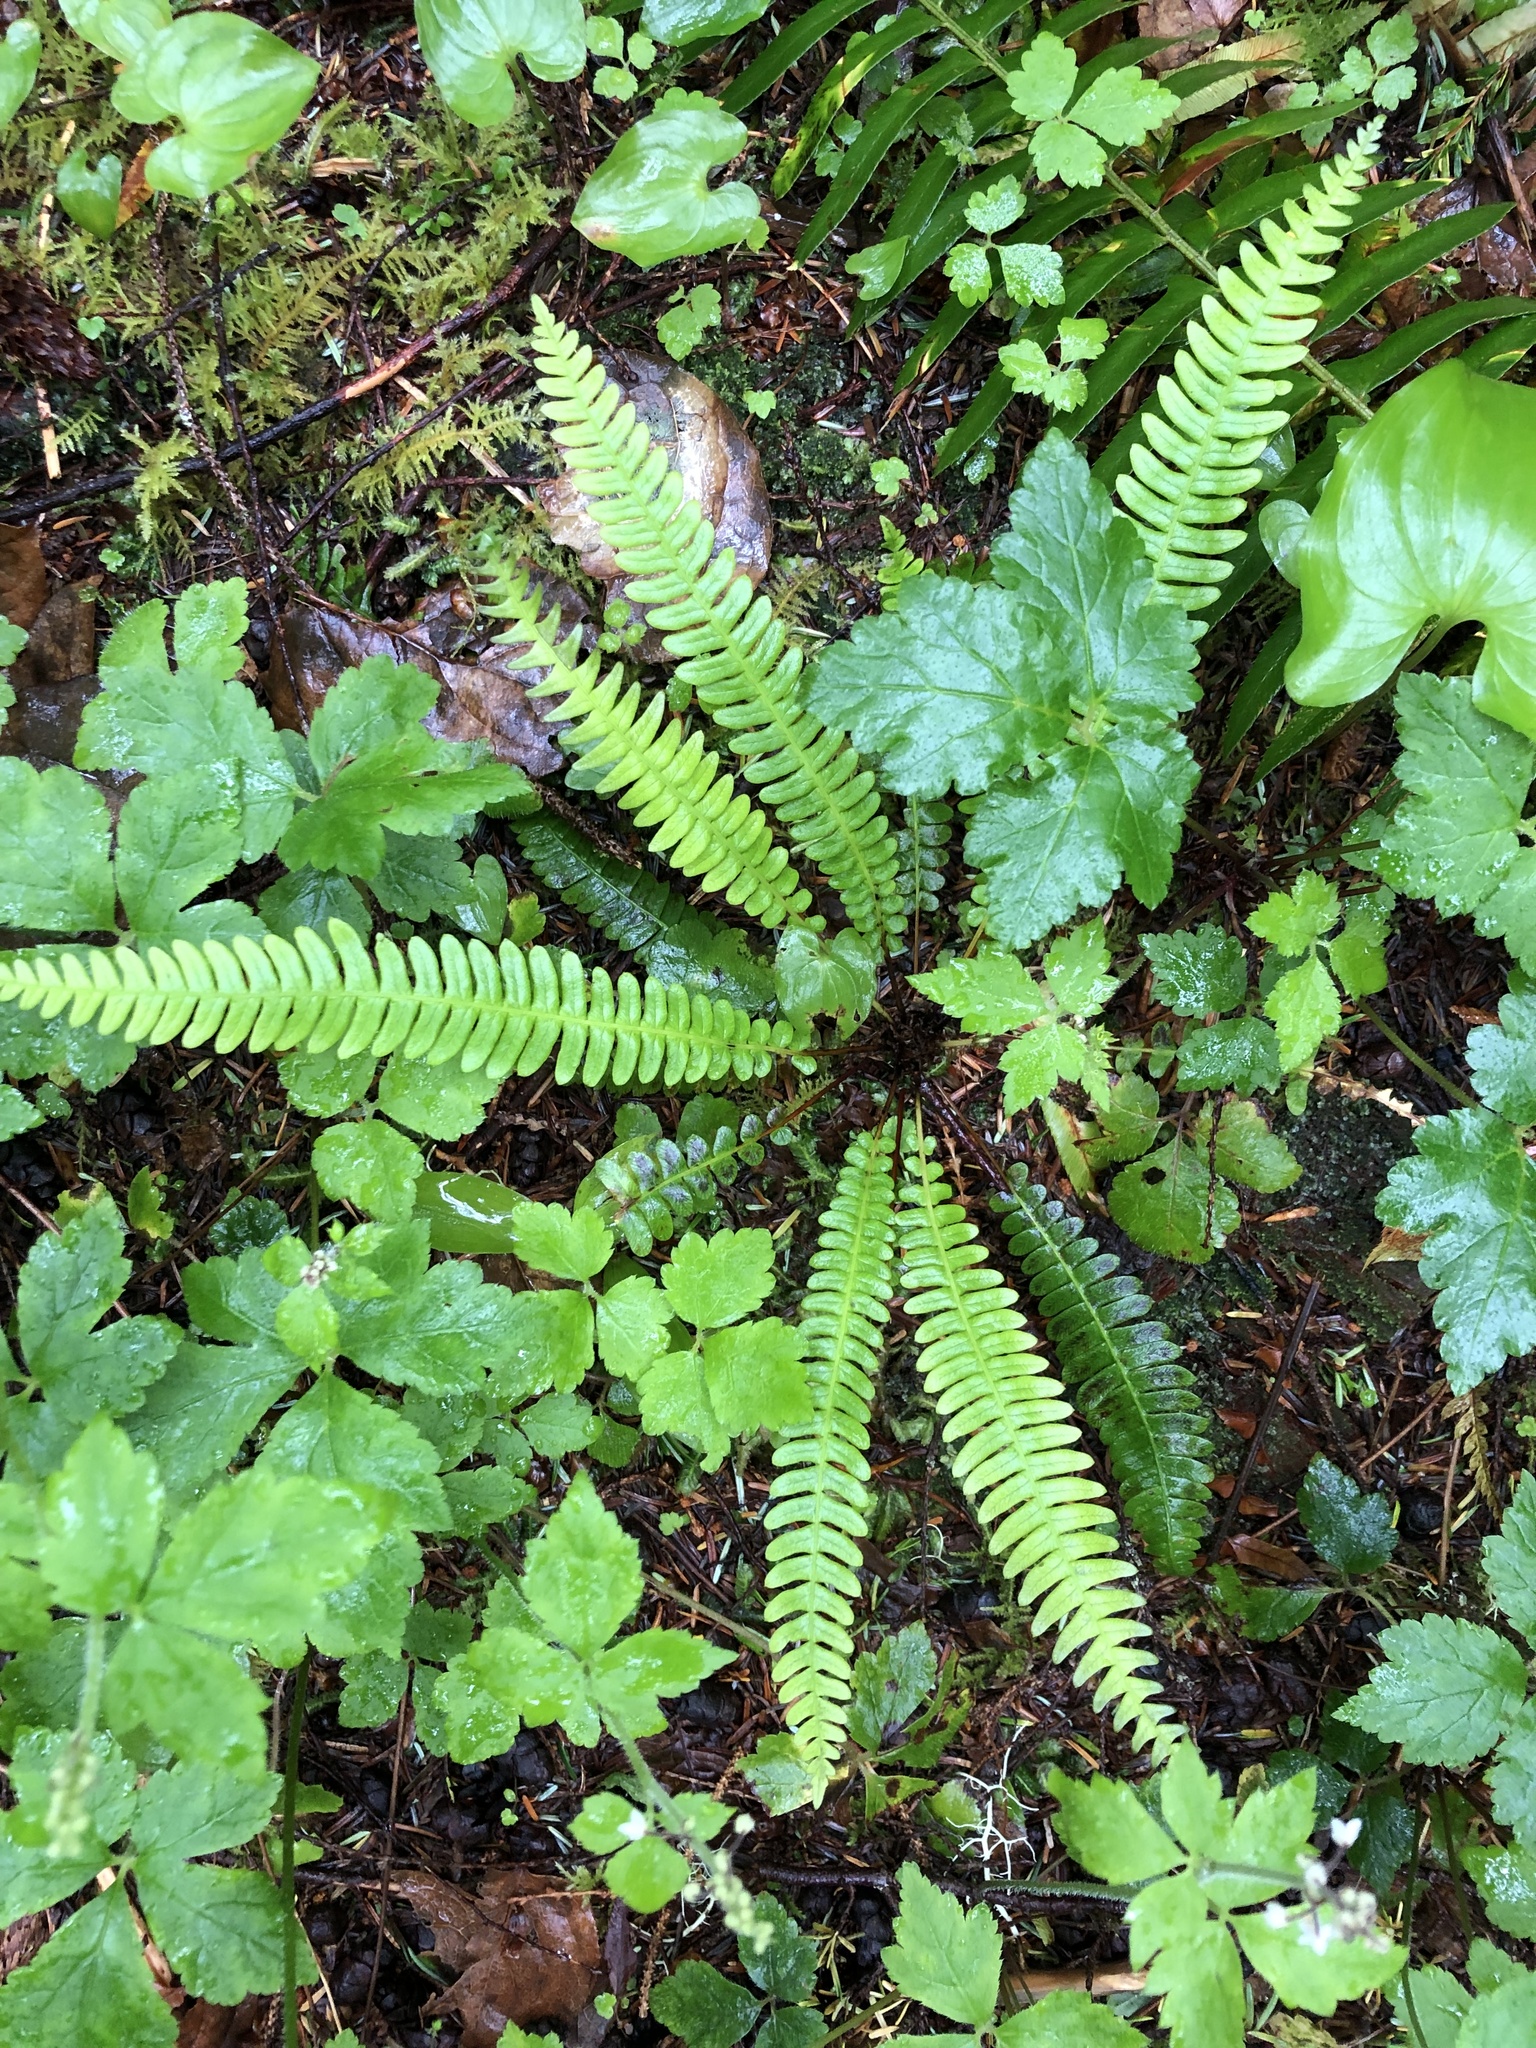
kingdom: Plantae
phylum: Tracheophyta
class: Polypodiopsida
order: Polypodiales
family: Blechnaceae
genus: Struthiopteris
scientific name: Struthiopteris spicant
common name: Deer fern
